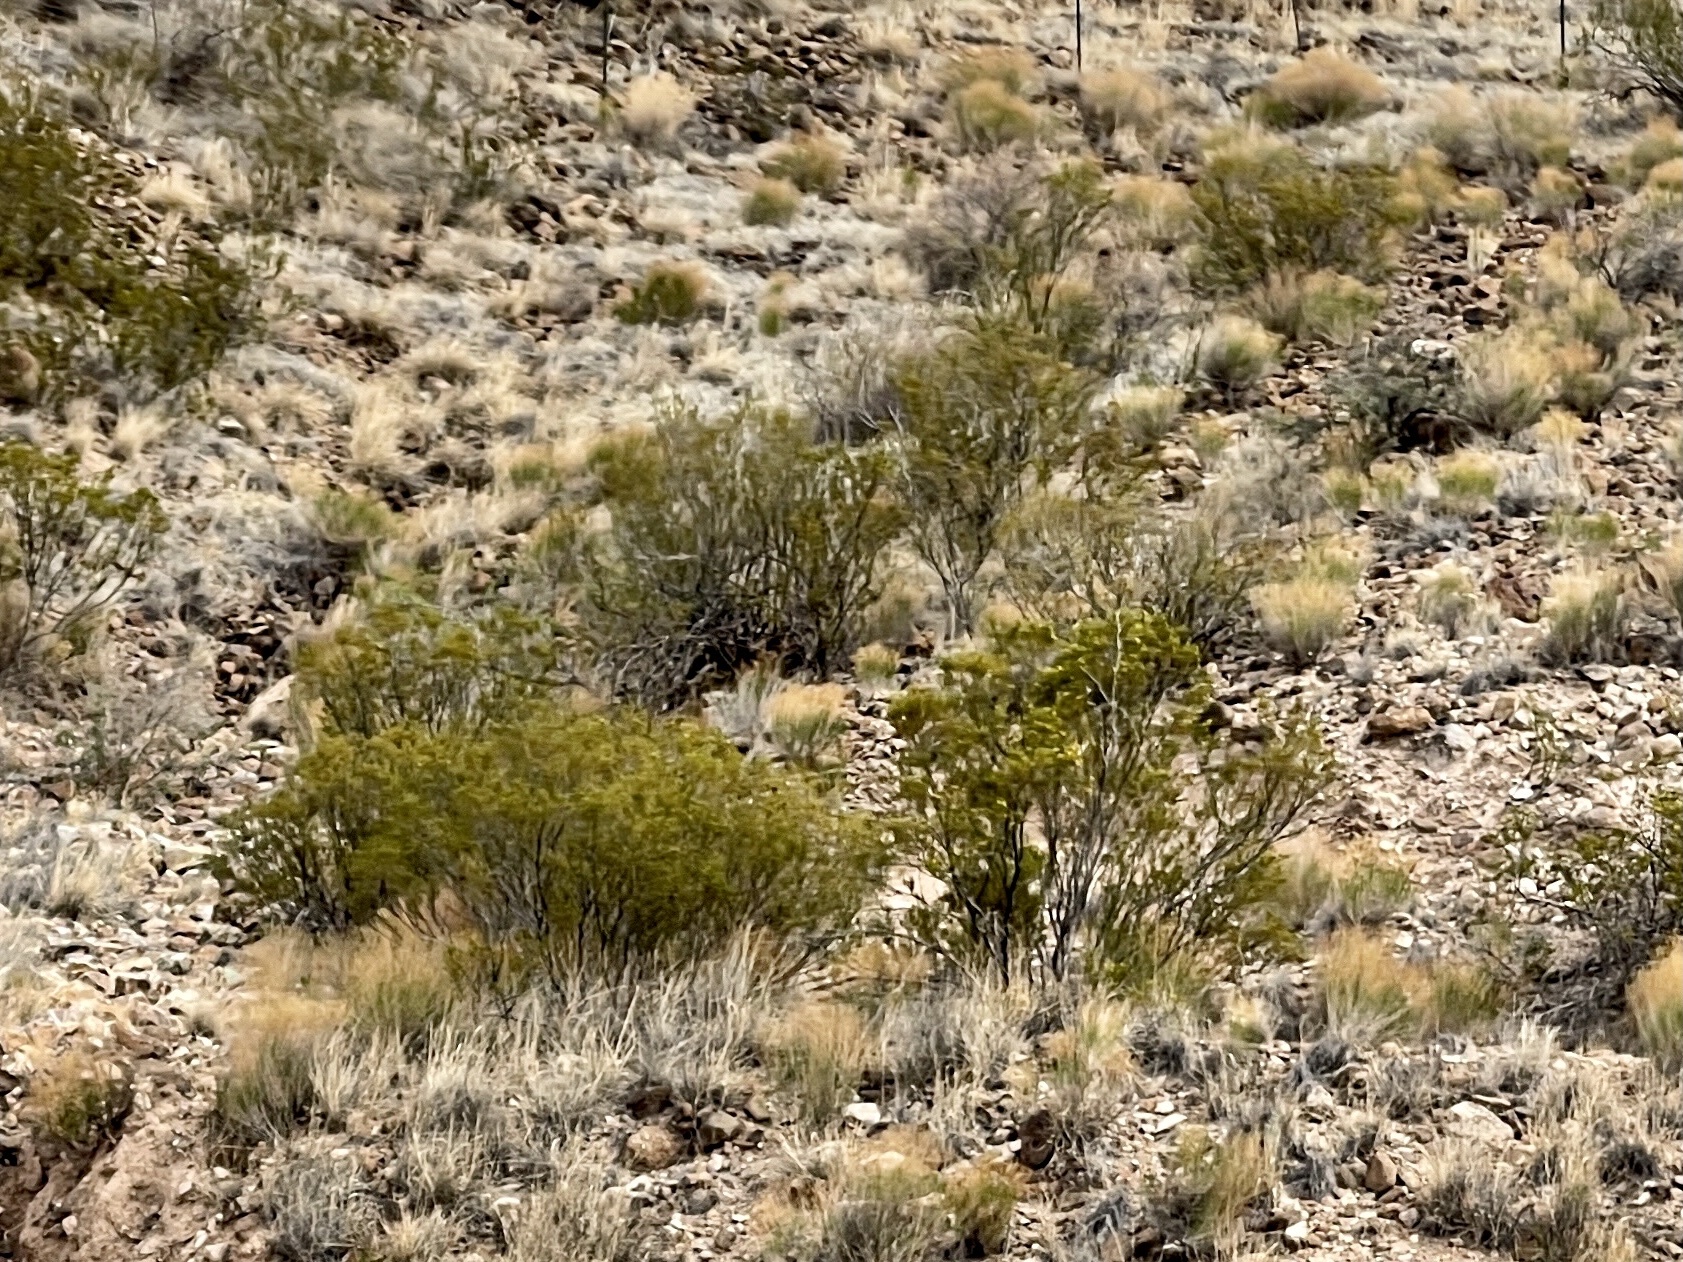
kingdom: Plantae
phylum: Tracheophyta
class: Magnoliopsida
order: Zygophyllales
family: Zygophyllaceae
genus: Larrea
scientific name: Larrea tridentata
